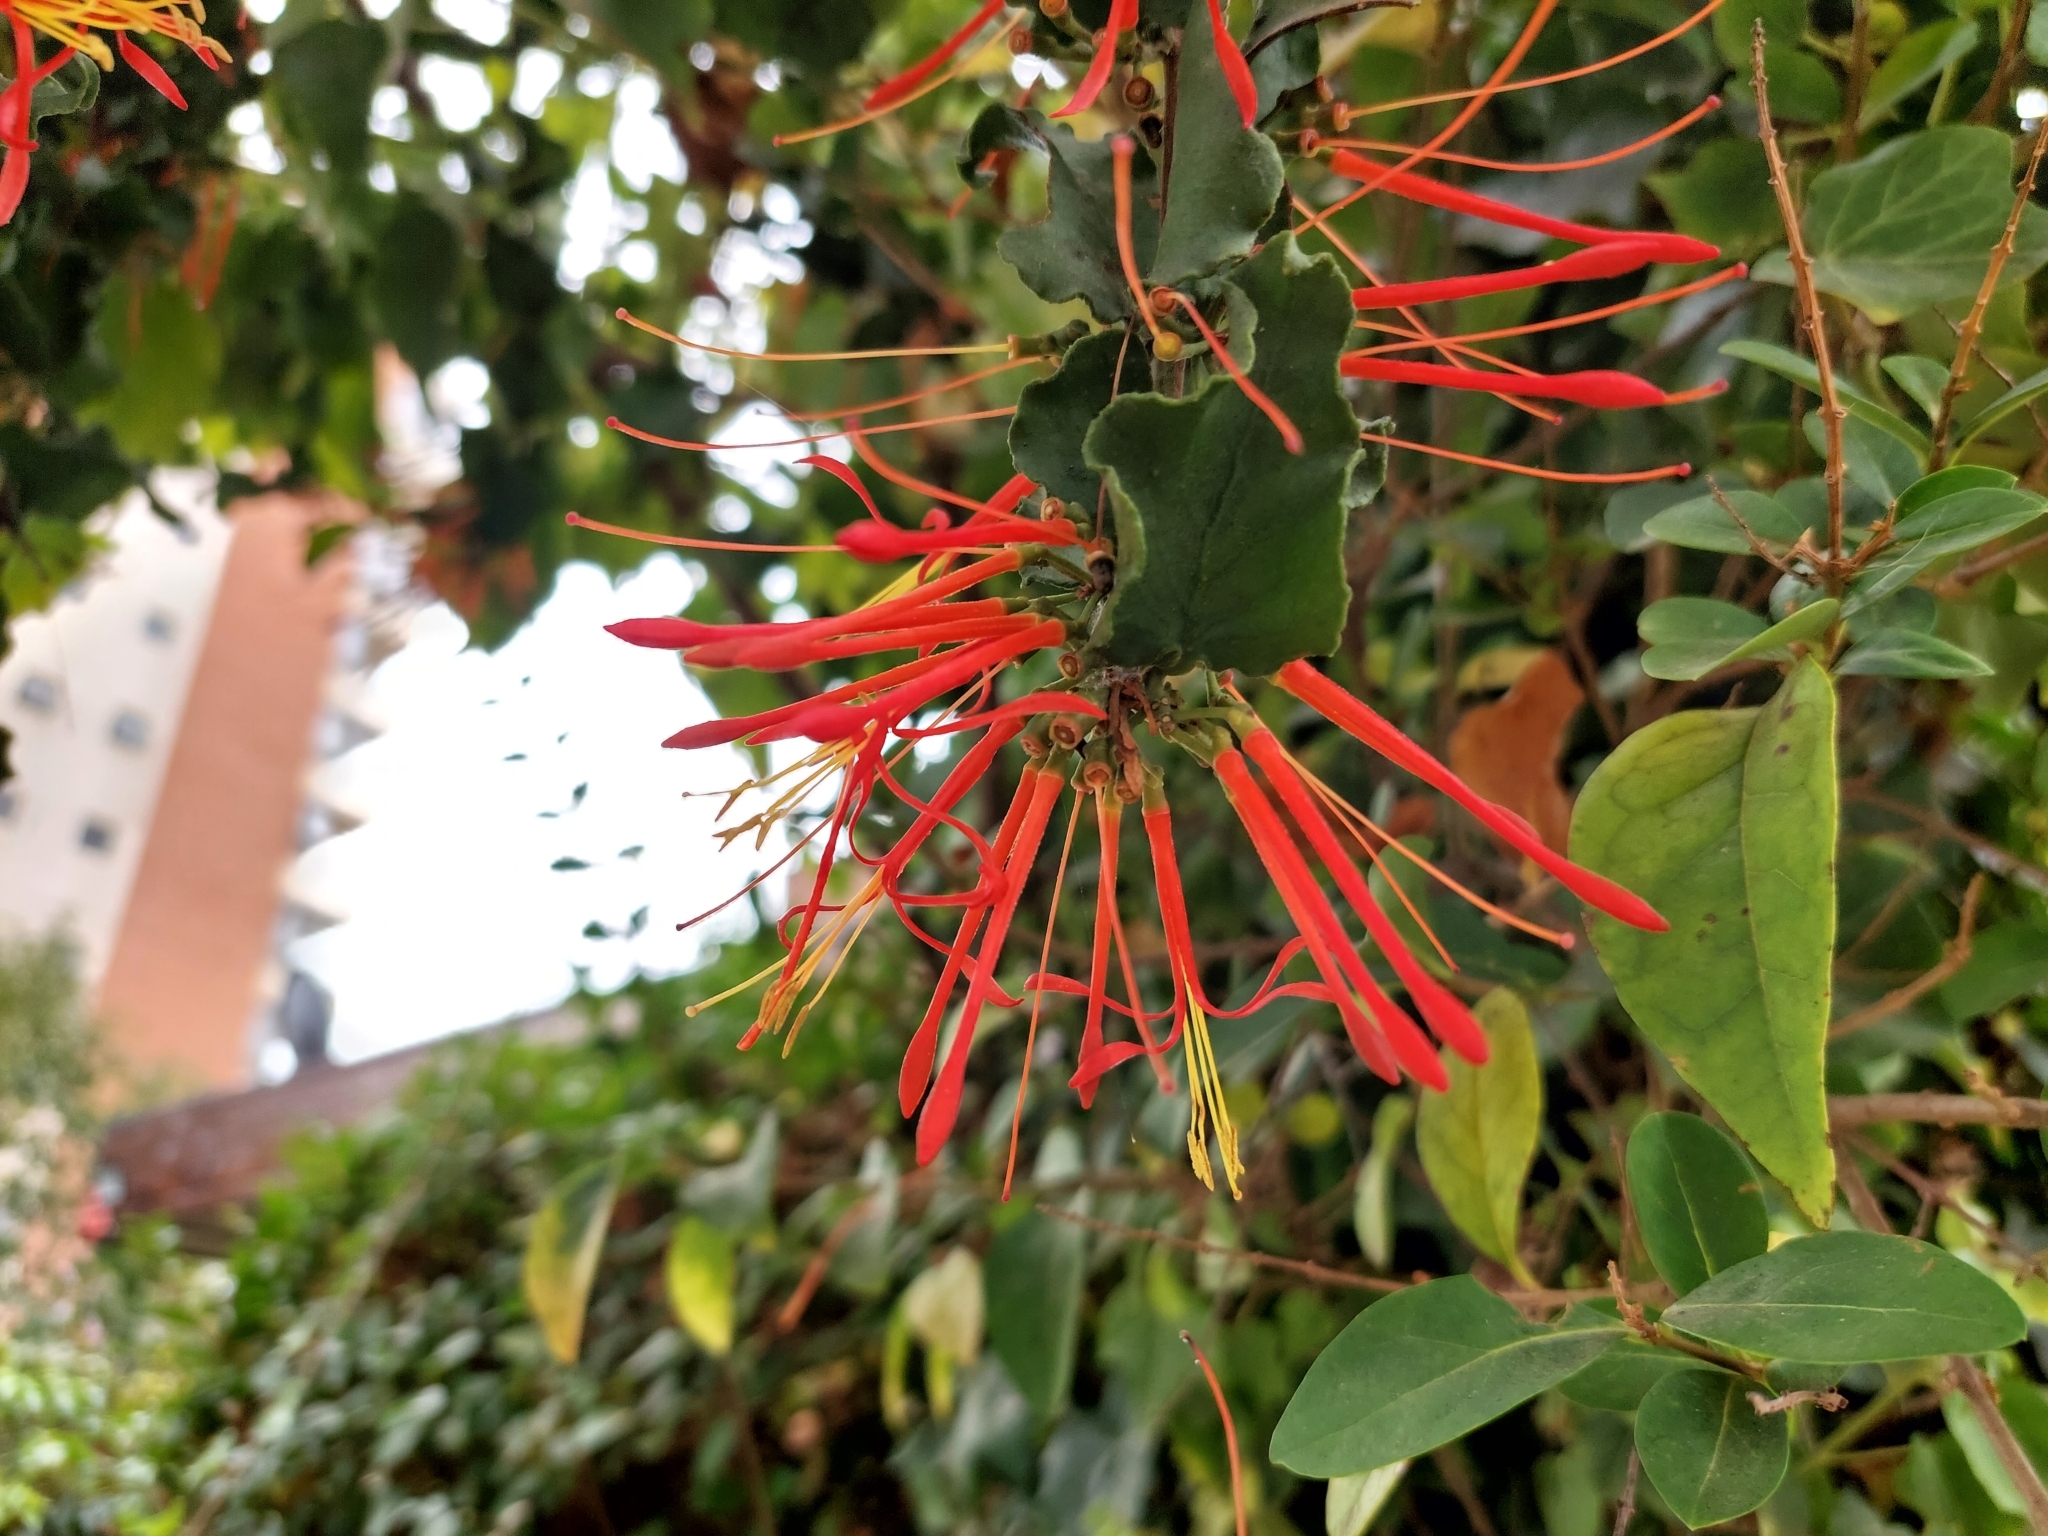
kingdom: Plantae
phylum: Tracheophyta
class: Magnoliopsida
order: Santalales
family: Loranthaceae
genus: Tristerix
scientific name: Tristerix corymbosus
